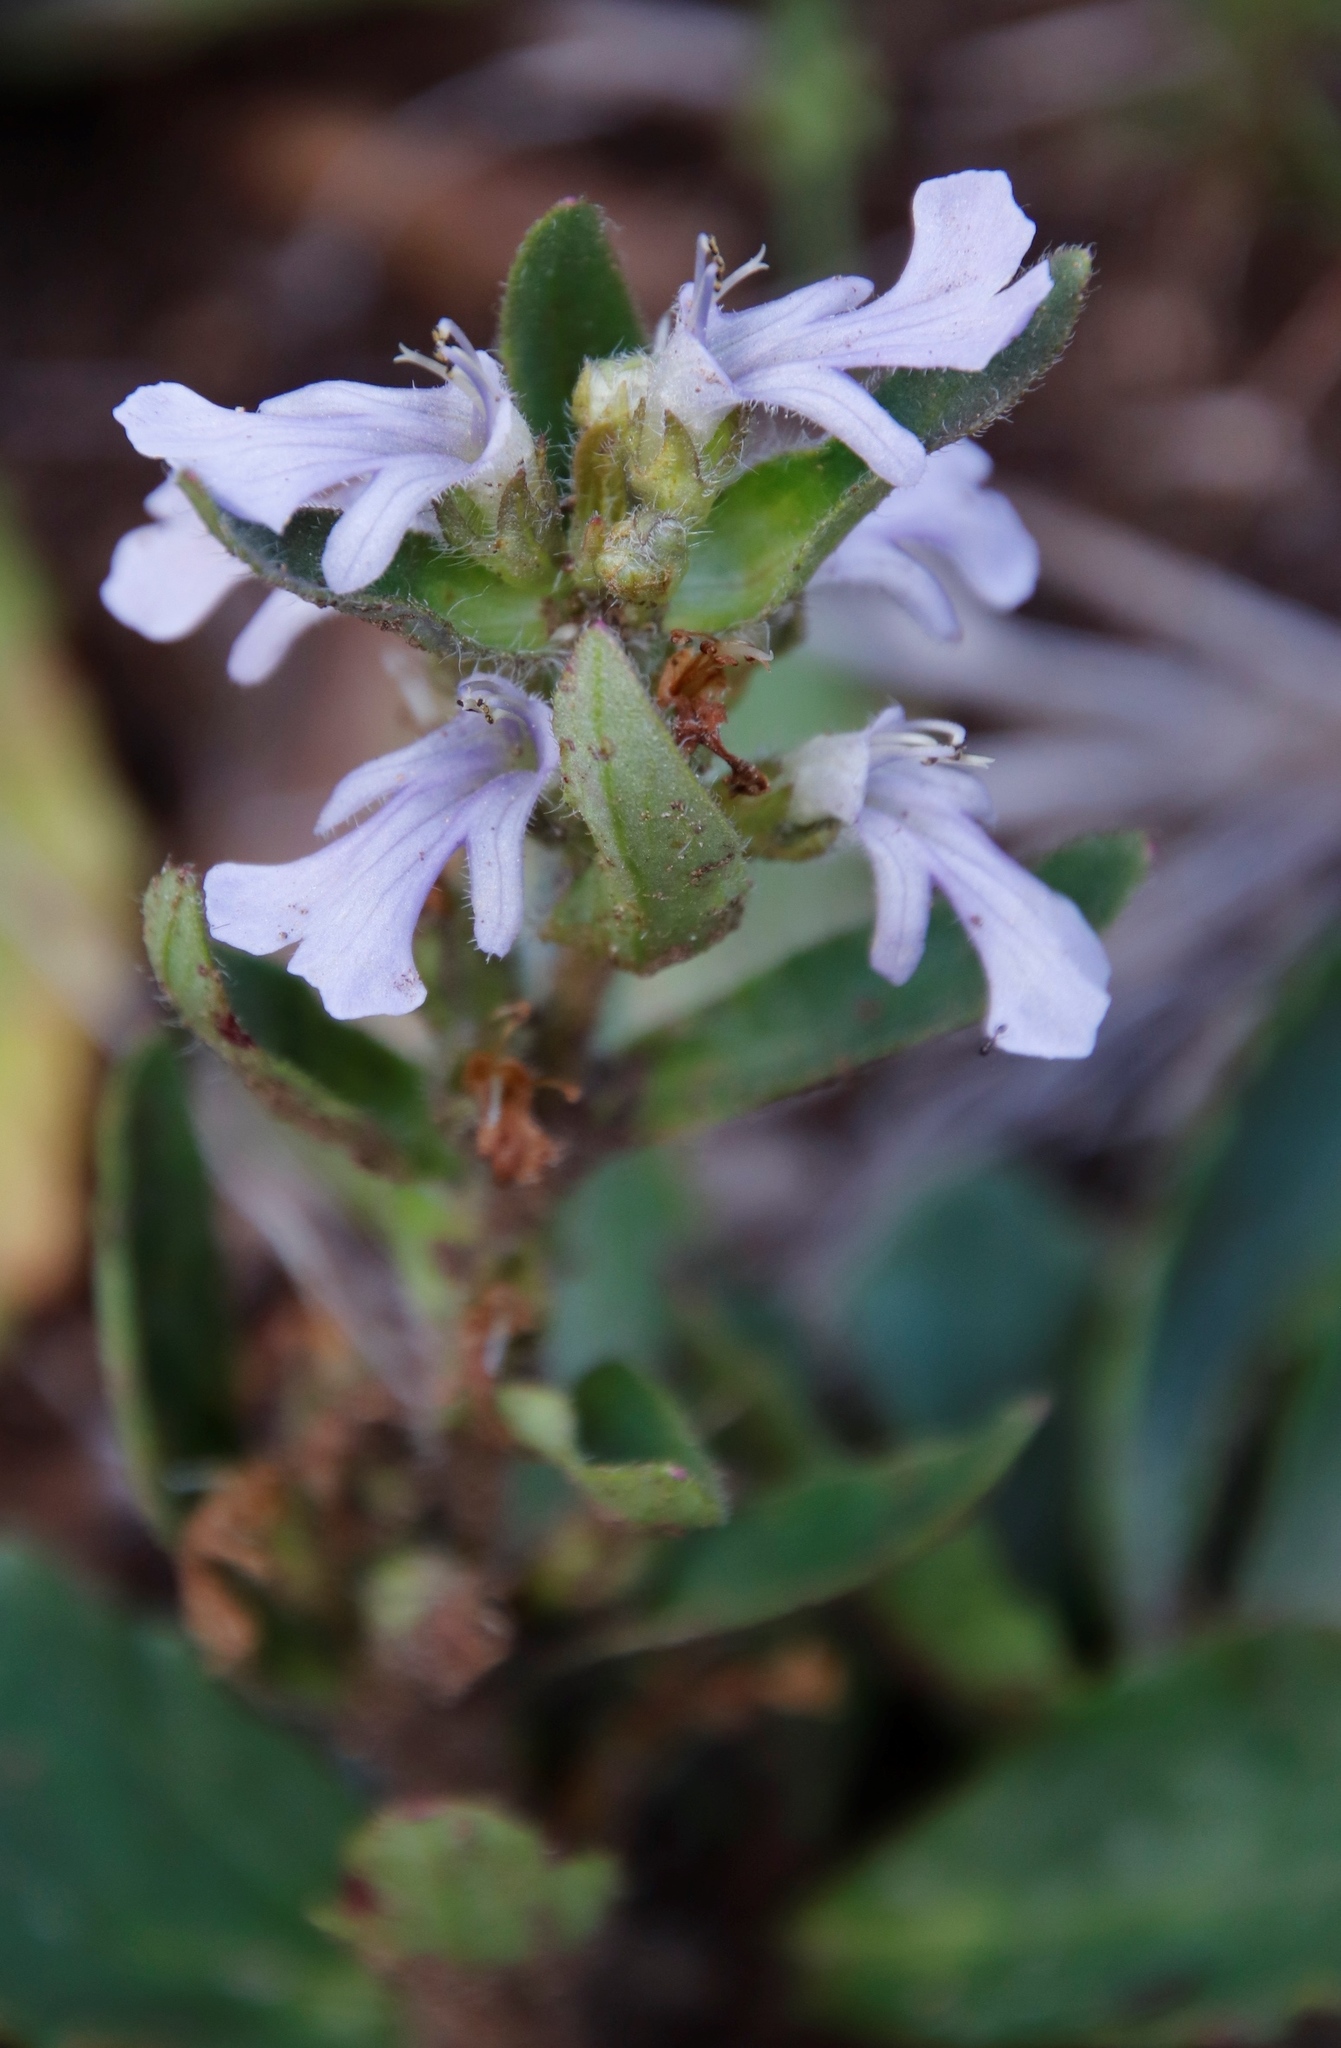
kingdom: Plantae
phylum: Tracheophyta
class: Magnoliopsida
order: Lamiales
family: Lamiaceae
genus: Ajuga
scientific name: Ajuga ophrydis
